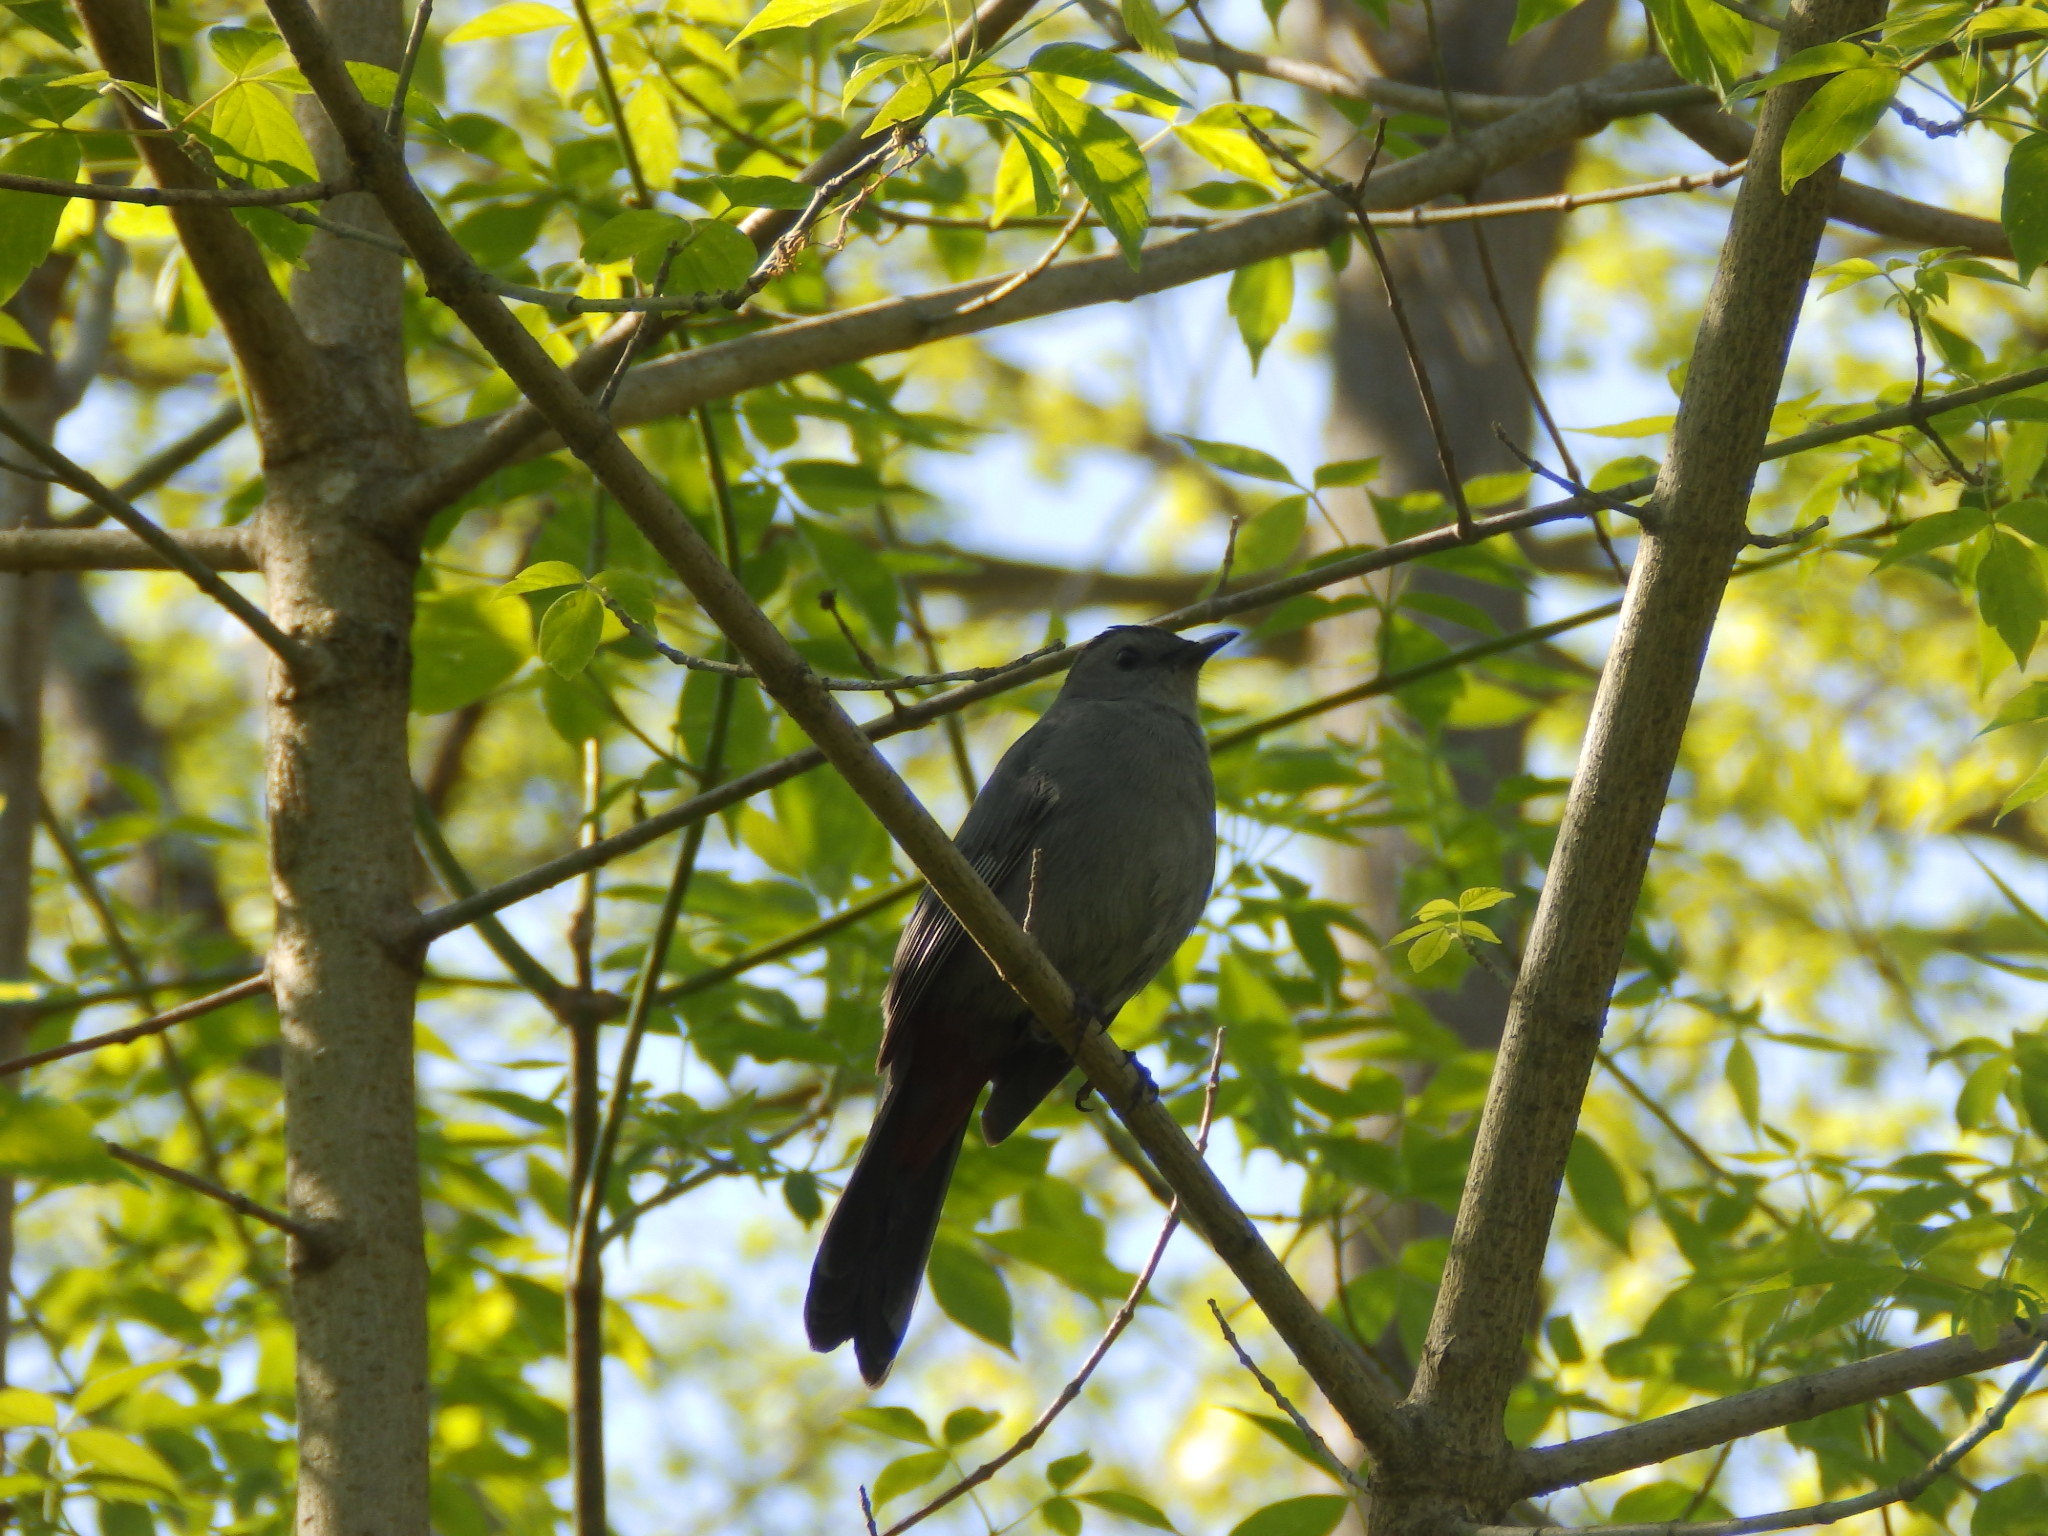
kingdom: Animalia
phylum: Chordata
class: Aves
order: Passeriformes
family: Mimidae
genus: Dumetella
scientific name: Dumetella carolinensis
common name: Gray catbird
